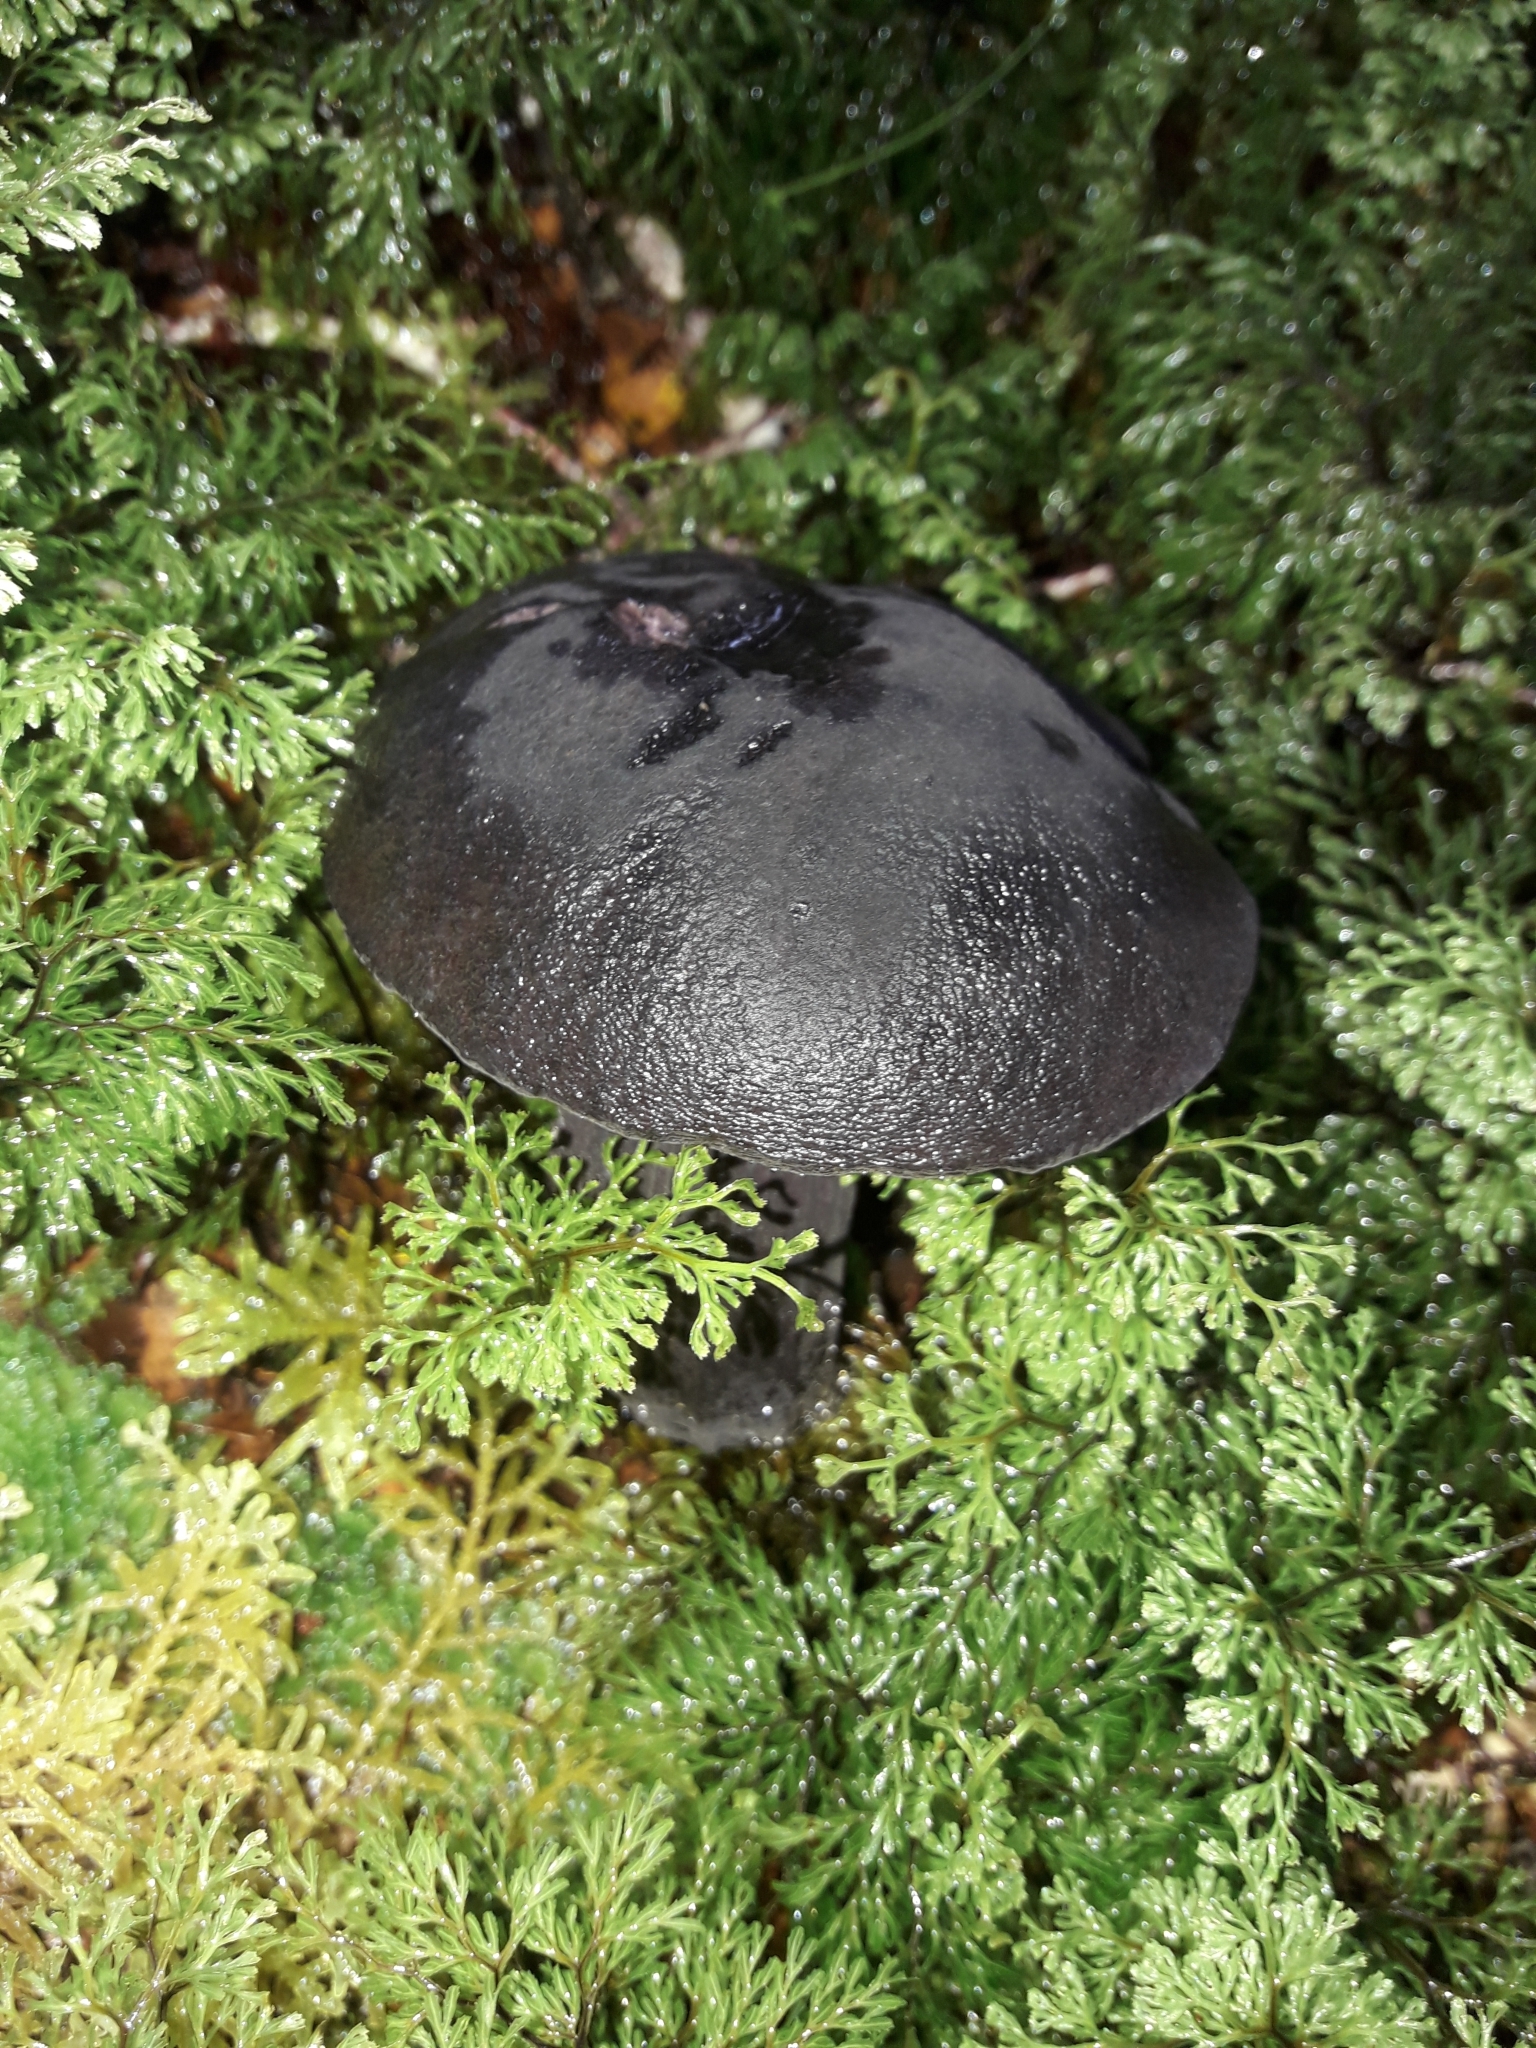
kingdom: Fungi
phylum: Basidiomycota
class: Agaricomycetes
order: Boletales
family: Boletaceae
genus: Porphyrellus
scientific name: Porphyrellus formosus
